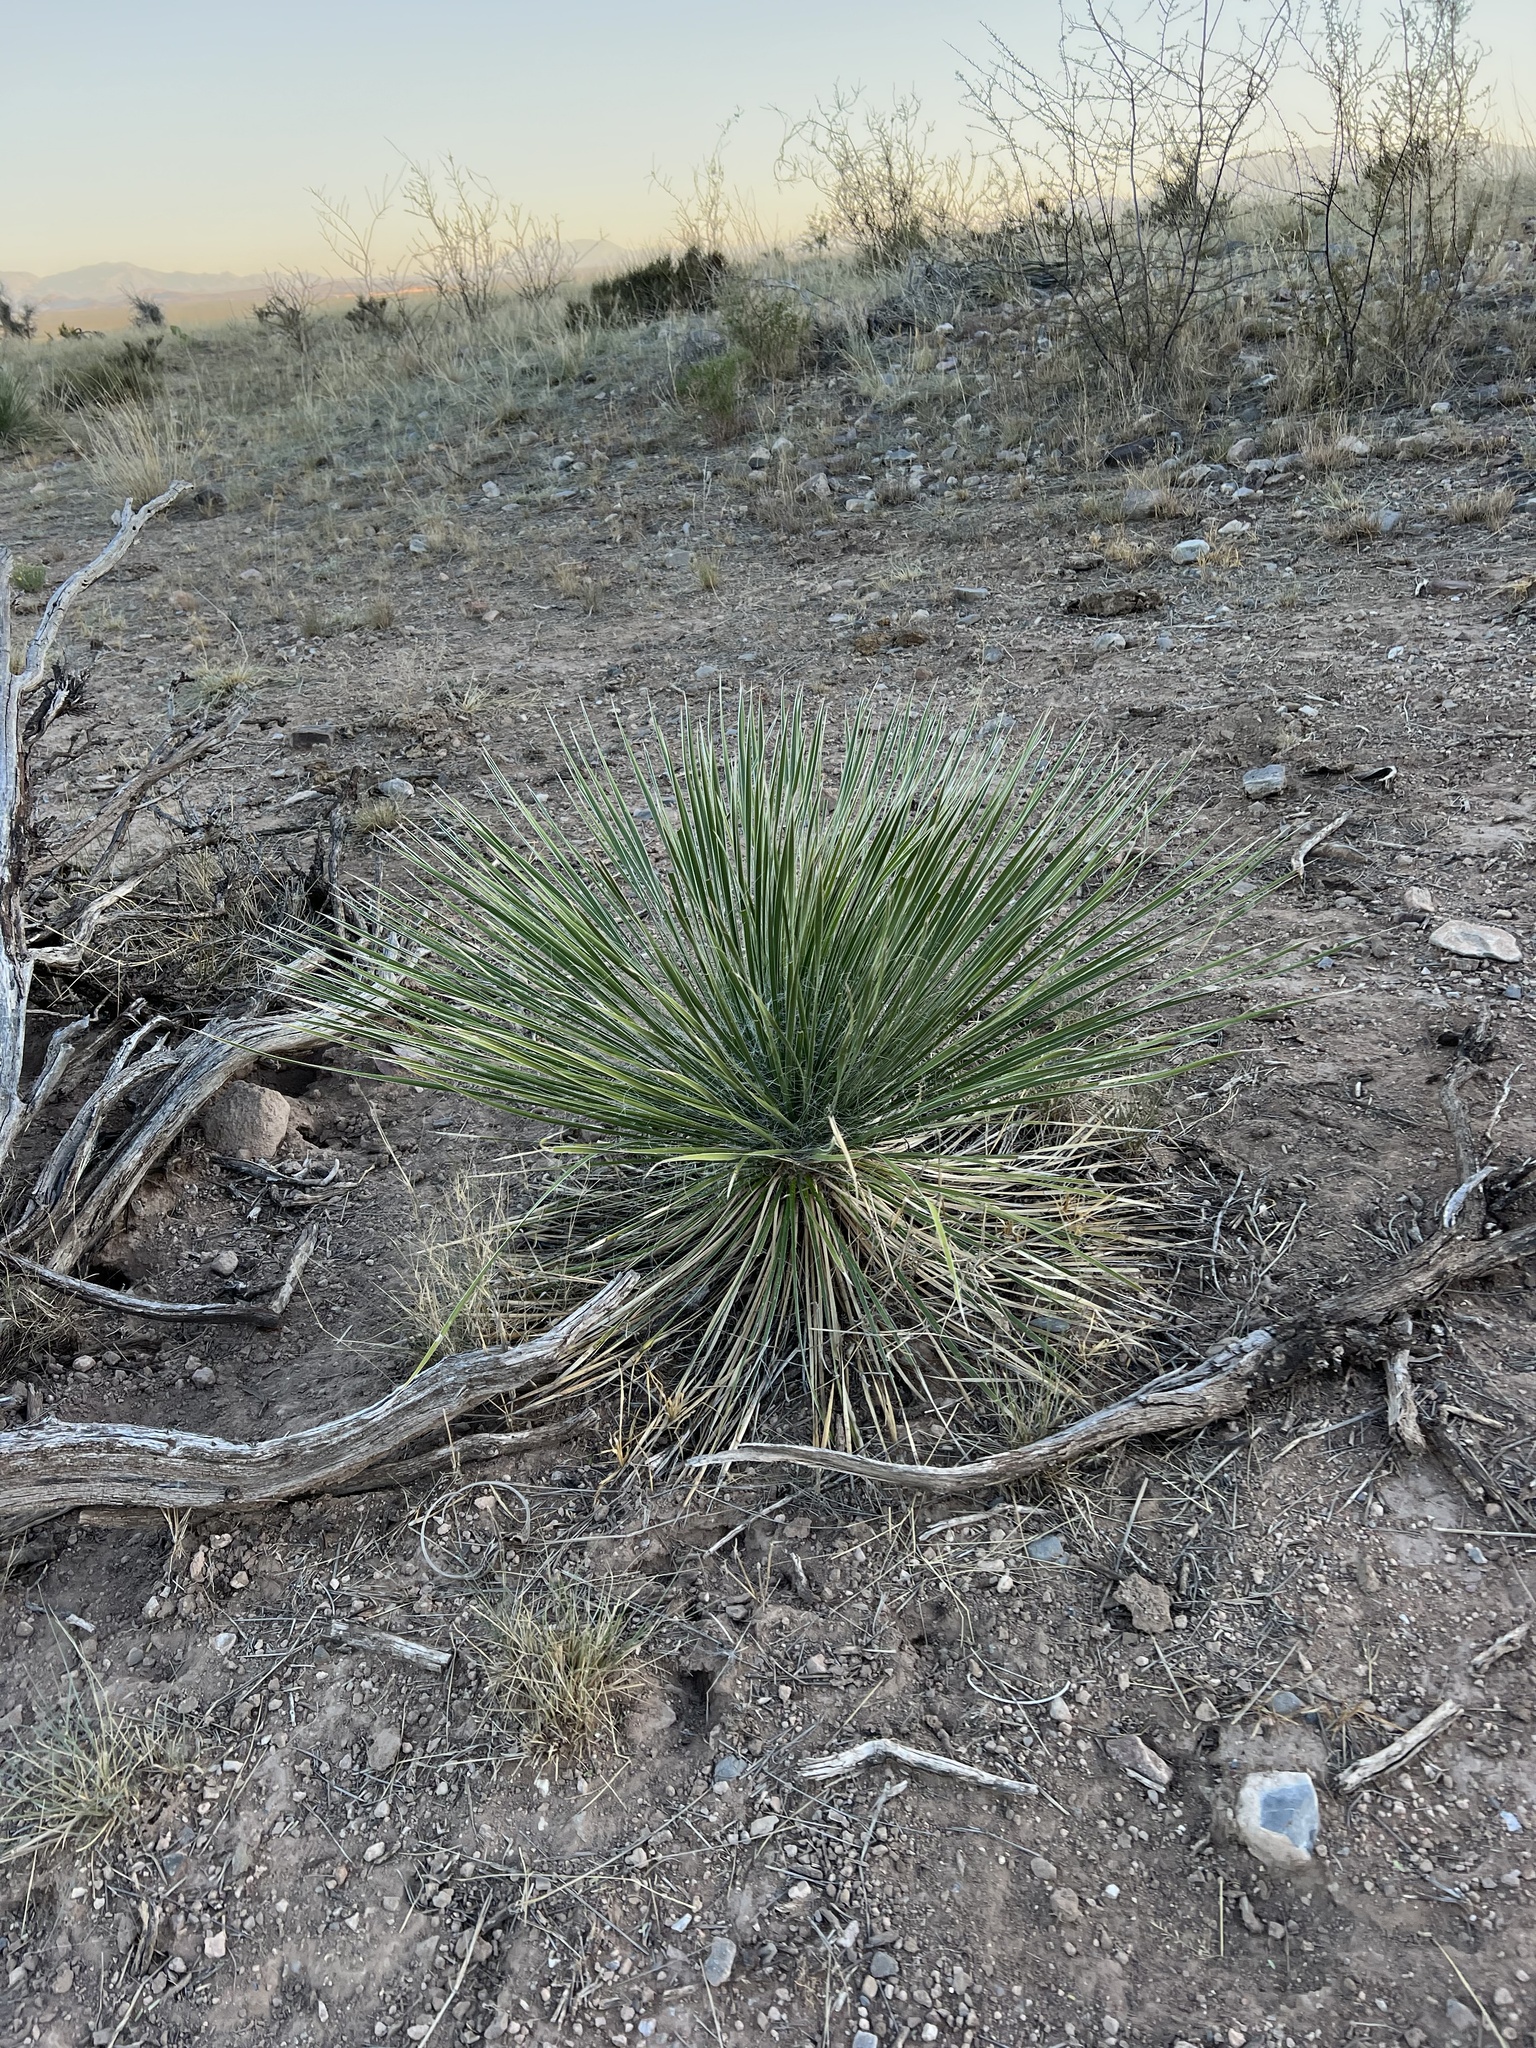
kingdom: Plantae
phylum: Tracheophyta
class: Liliopsida
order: Asparagales
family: Asparagaceae
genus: Yucca
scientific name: Yucca elata
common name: Palmella
